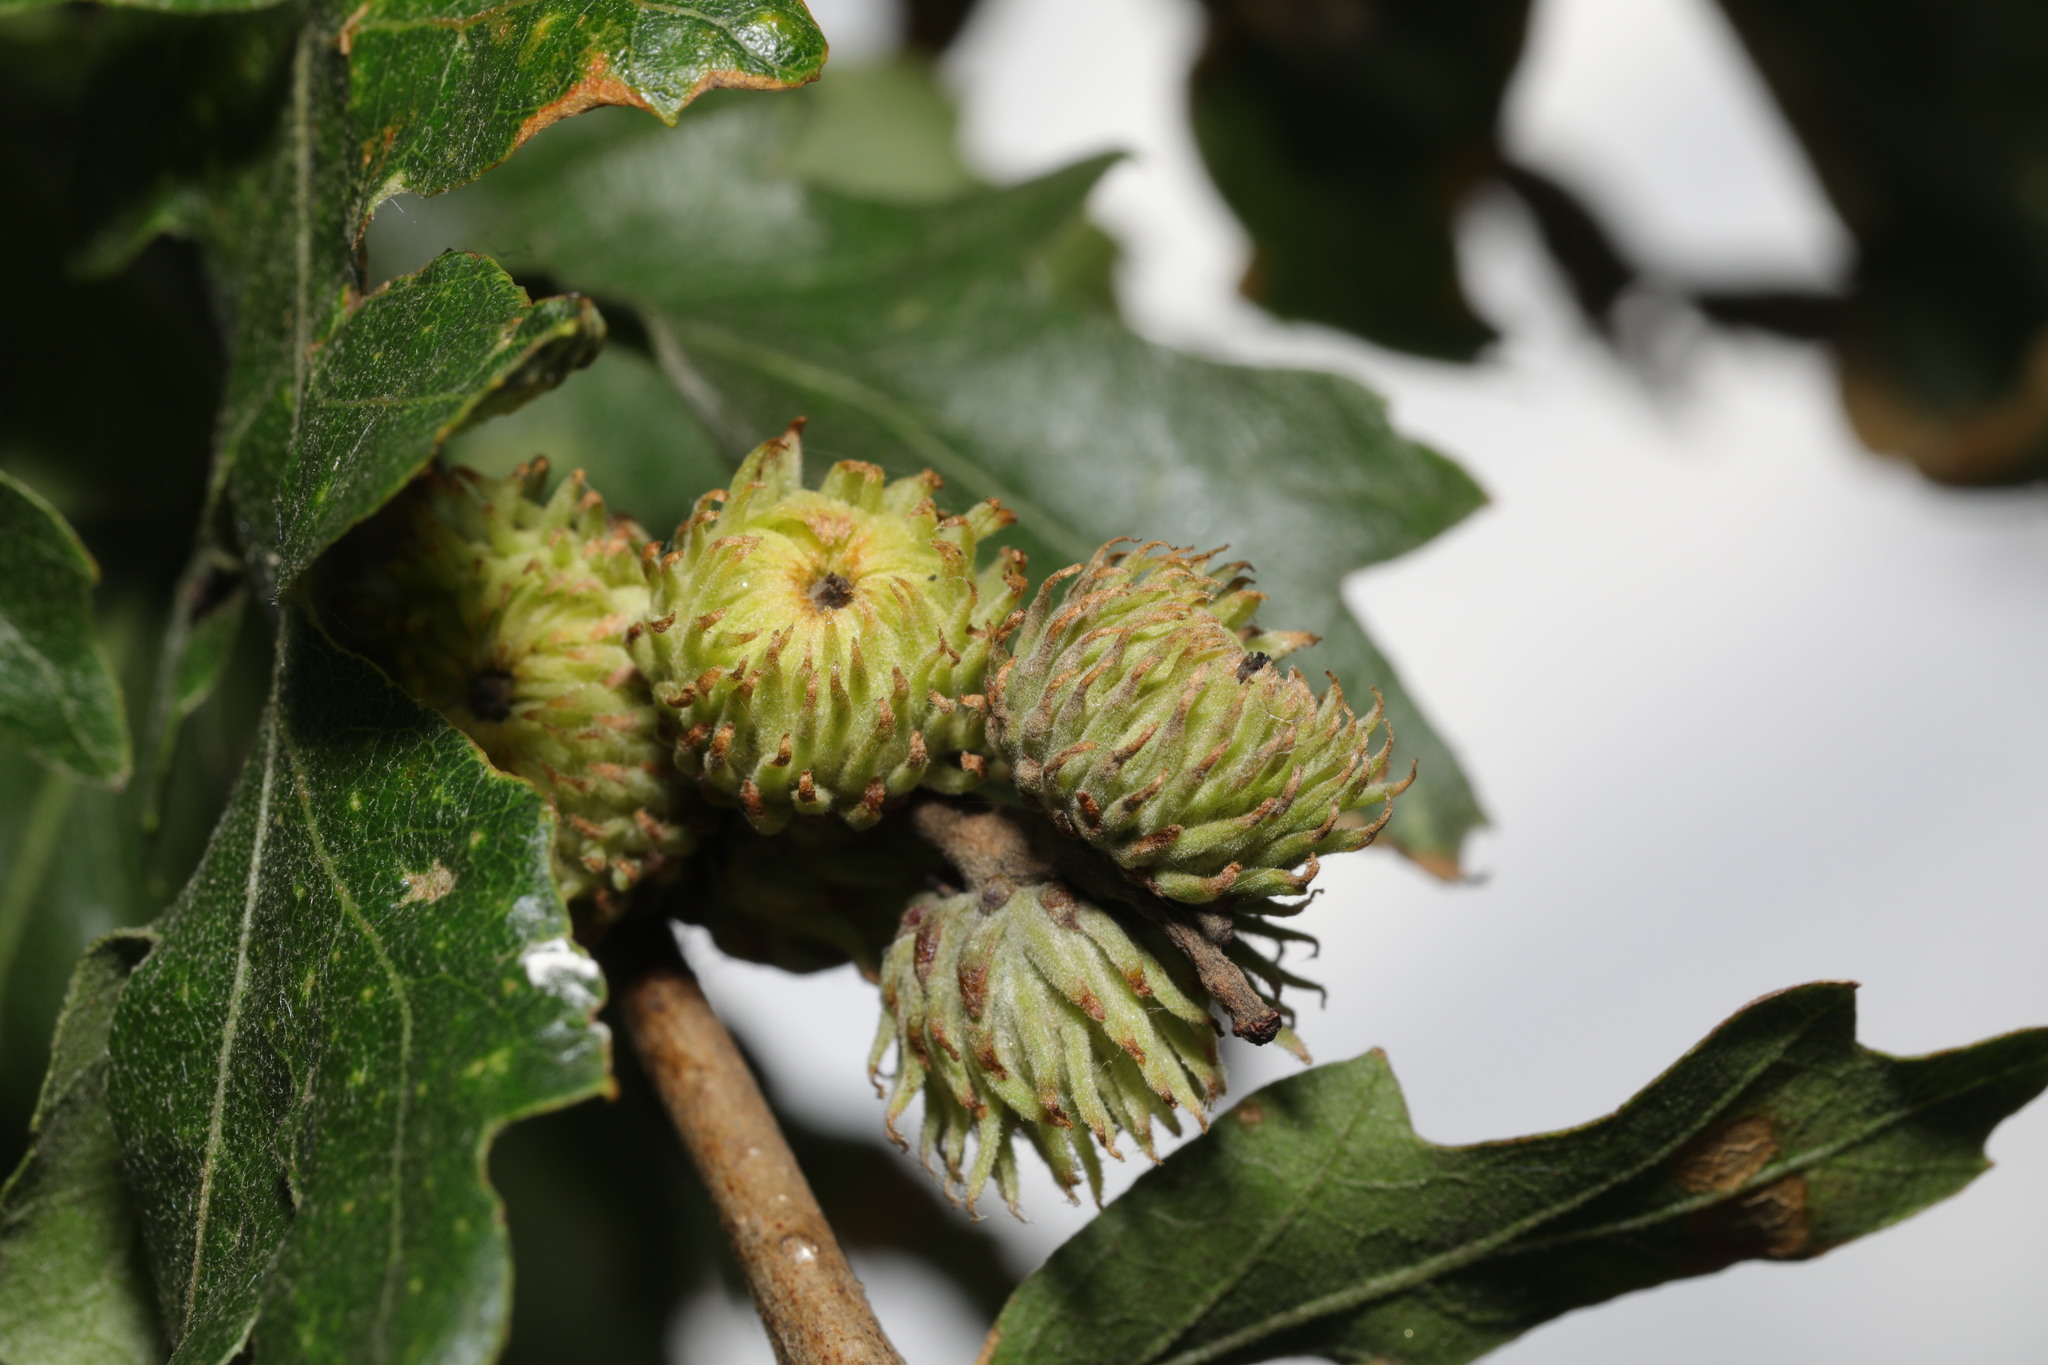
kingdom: Plantae
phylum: Tracheophyta
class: Magnoliopsida
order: Fagales
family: Fagaceae
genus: Quercus
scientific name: Quercus cerris
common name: Turkey oak
